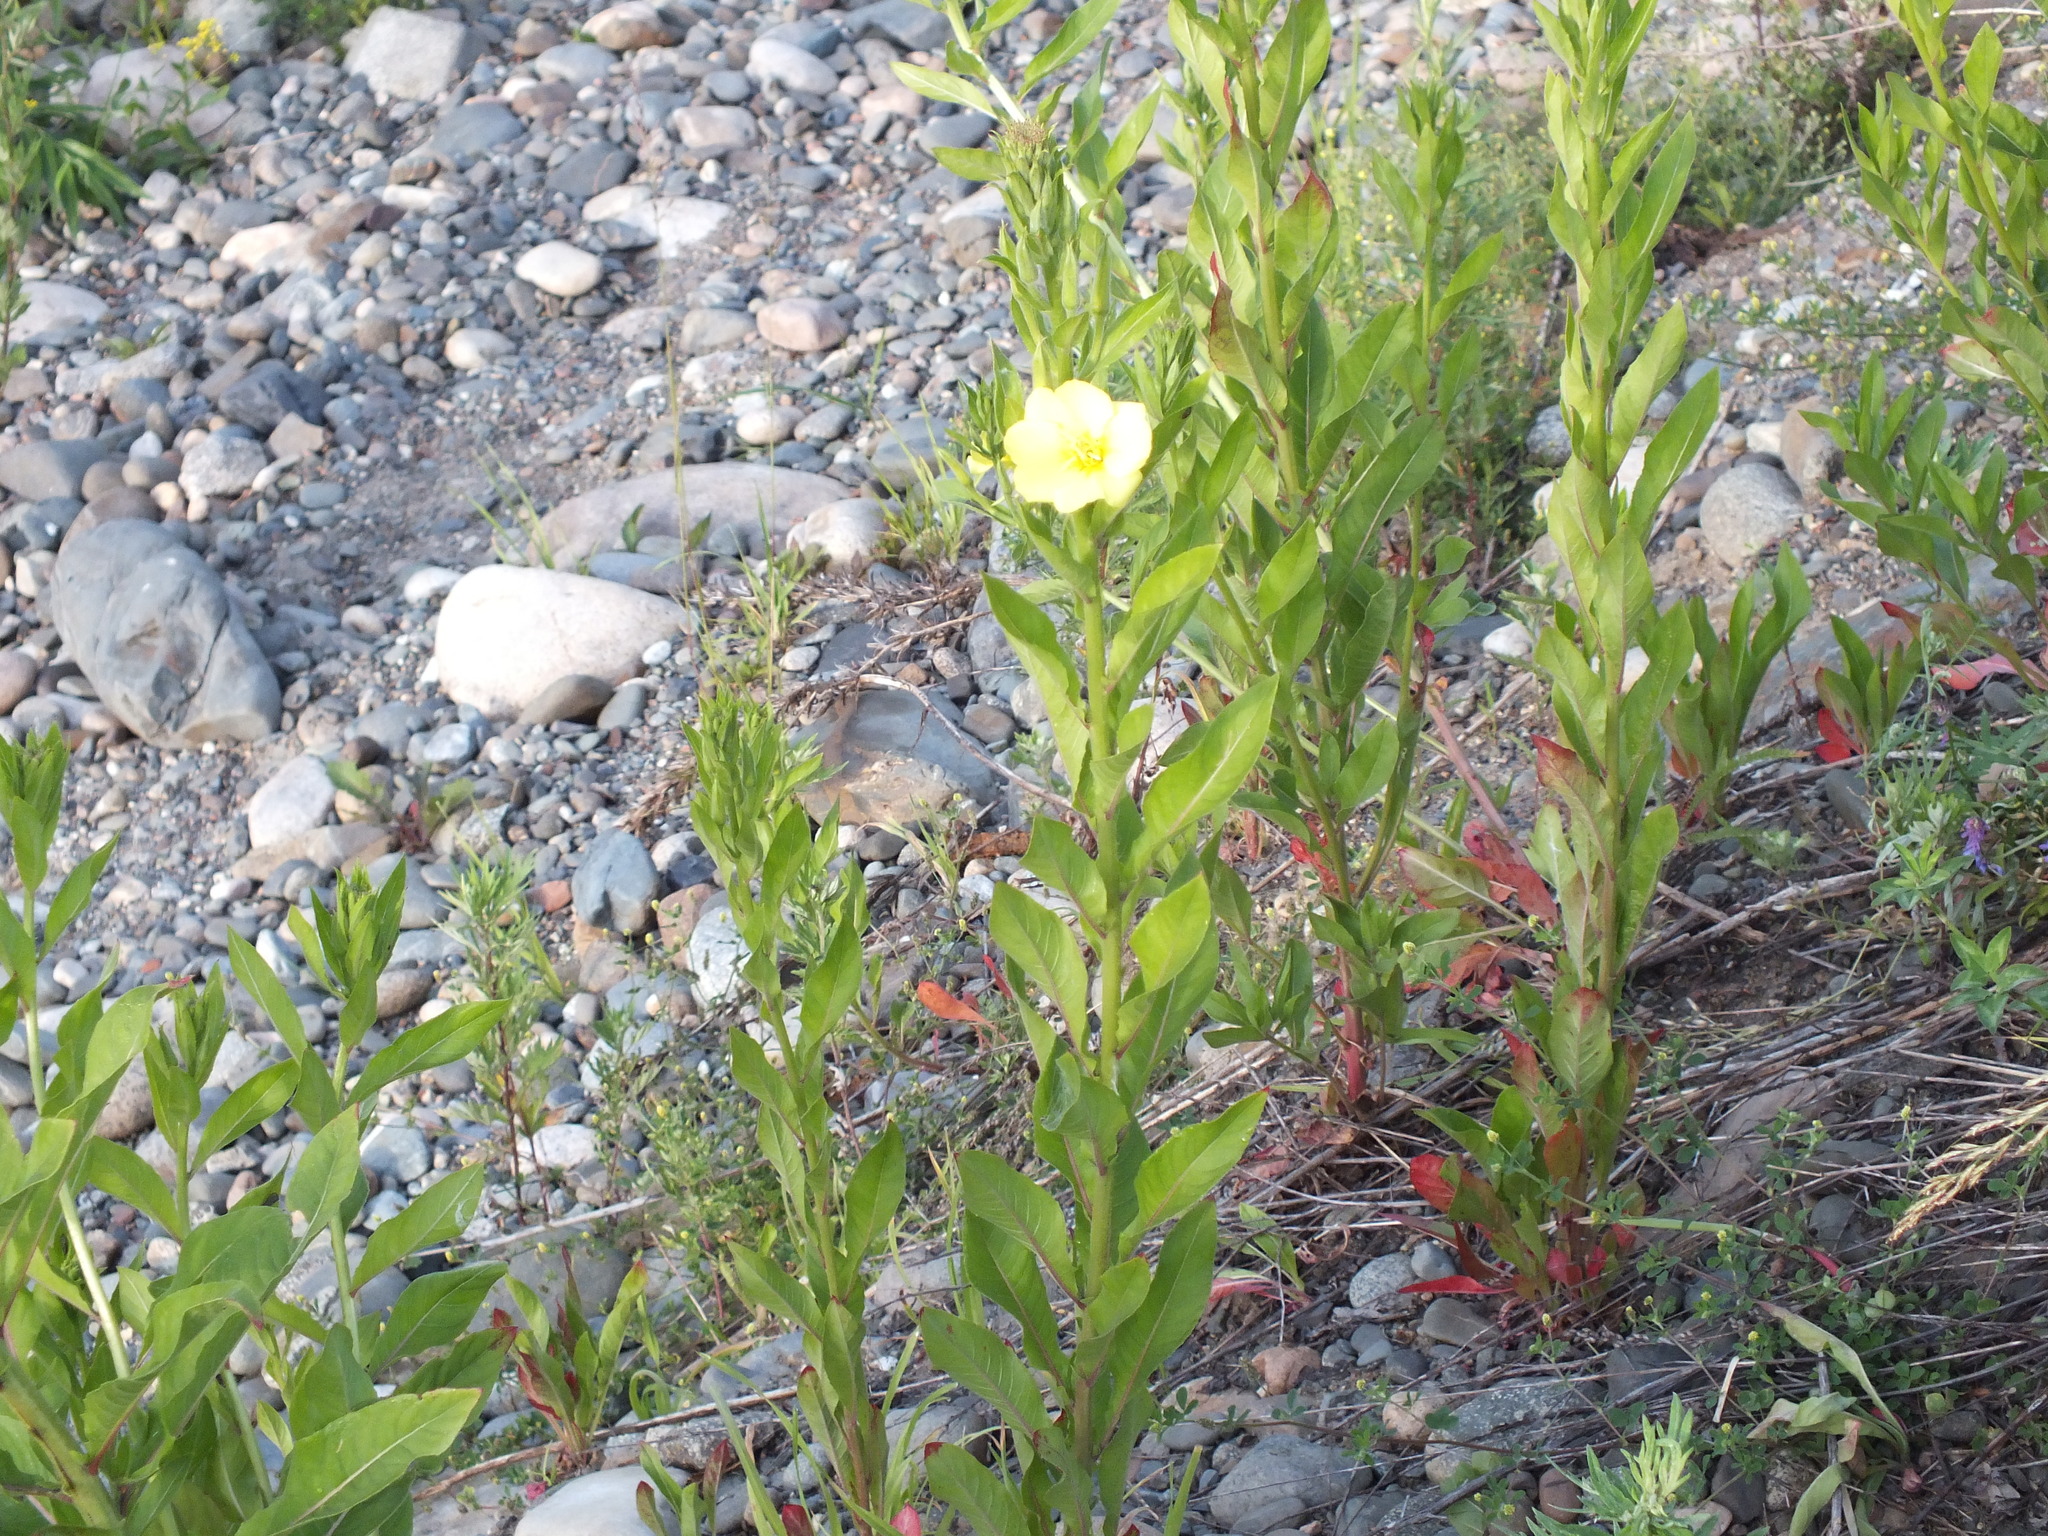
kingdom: Plantae
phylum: Tracheophyta
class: Magnoliopsida
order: Myrtales
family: Onagraceae
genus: Oenothera
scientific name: Oenothera biennis
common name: Common evening-primrose
